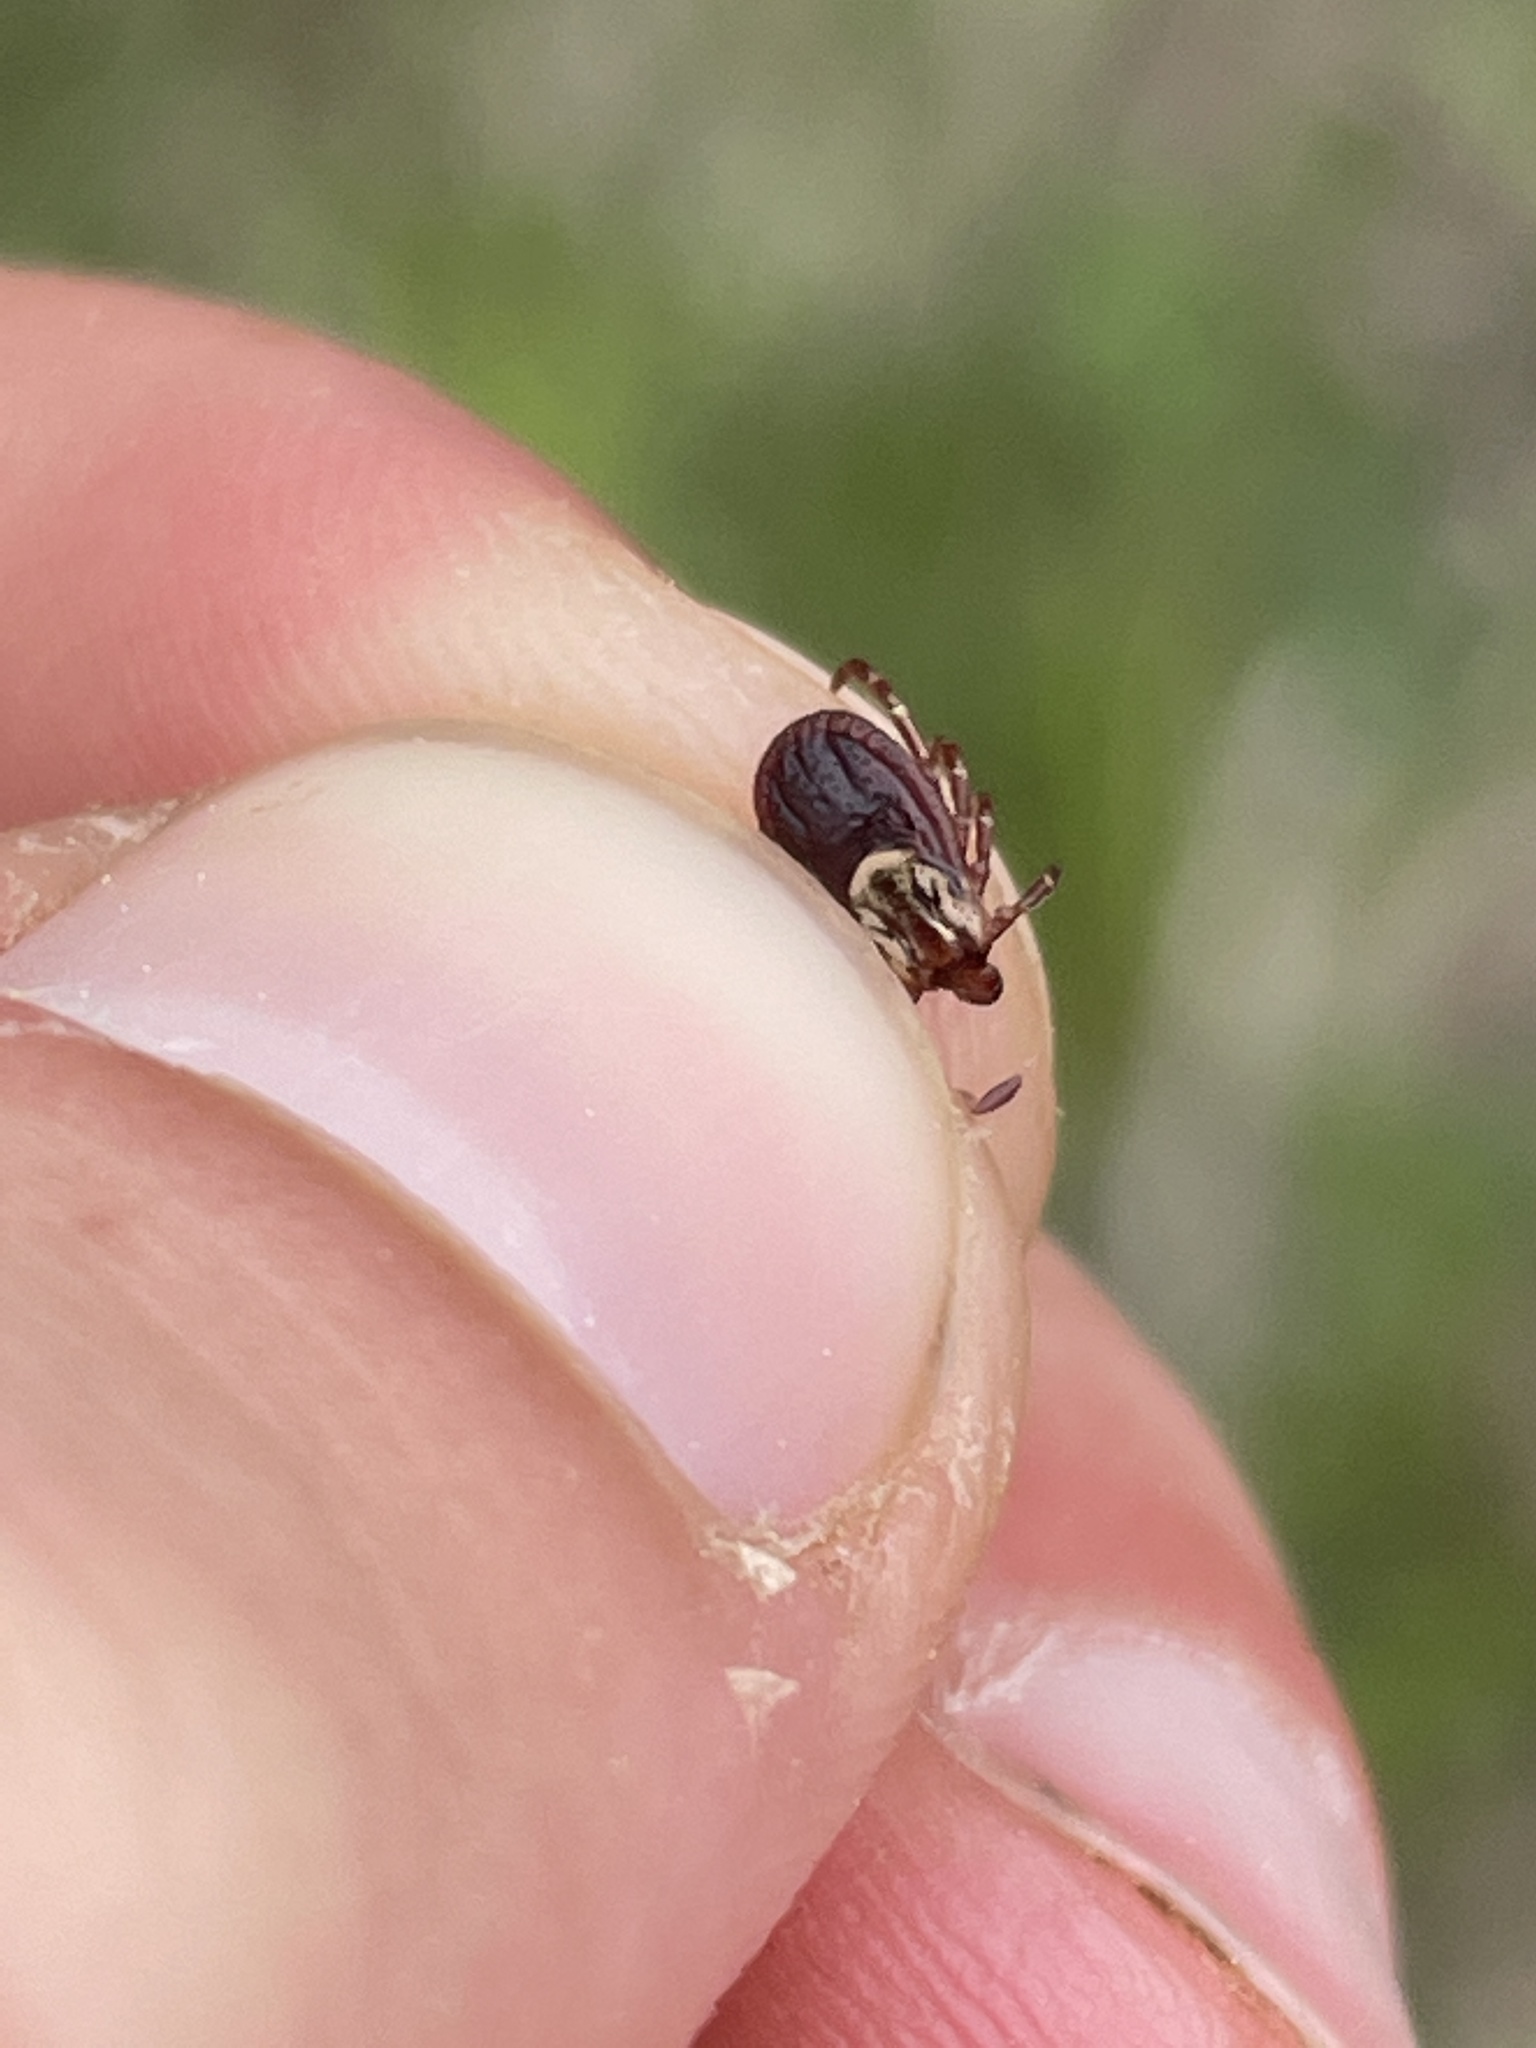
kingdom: Animalia
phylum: Arthropoda
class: Arachnida
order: Ixodida
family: Ixodidae
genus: Dermacentor
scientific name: Dermacentor variabilis
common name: American dog tick
